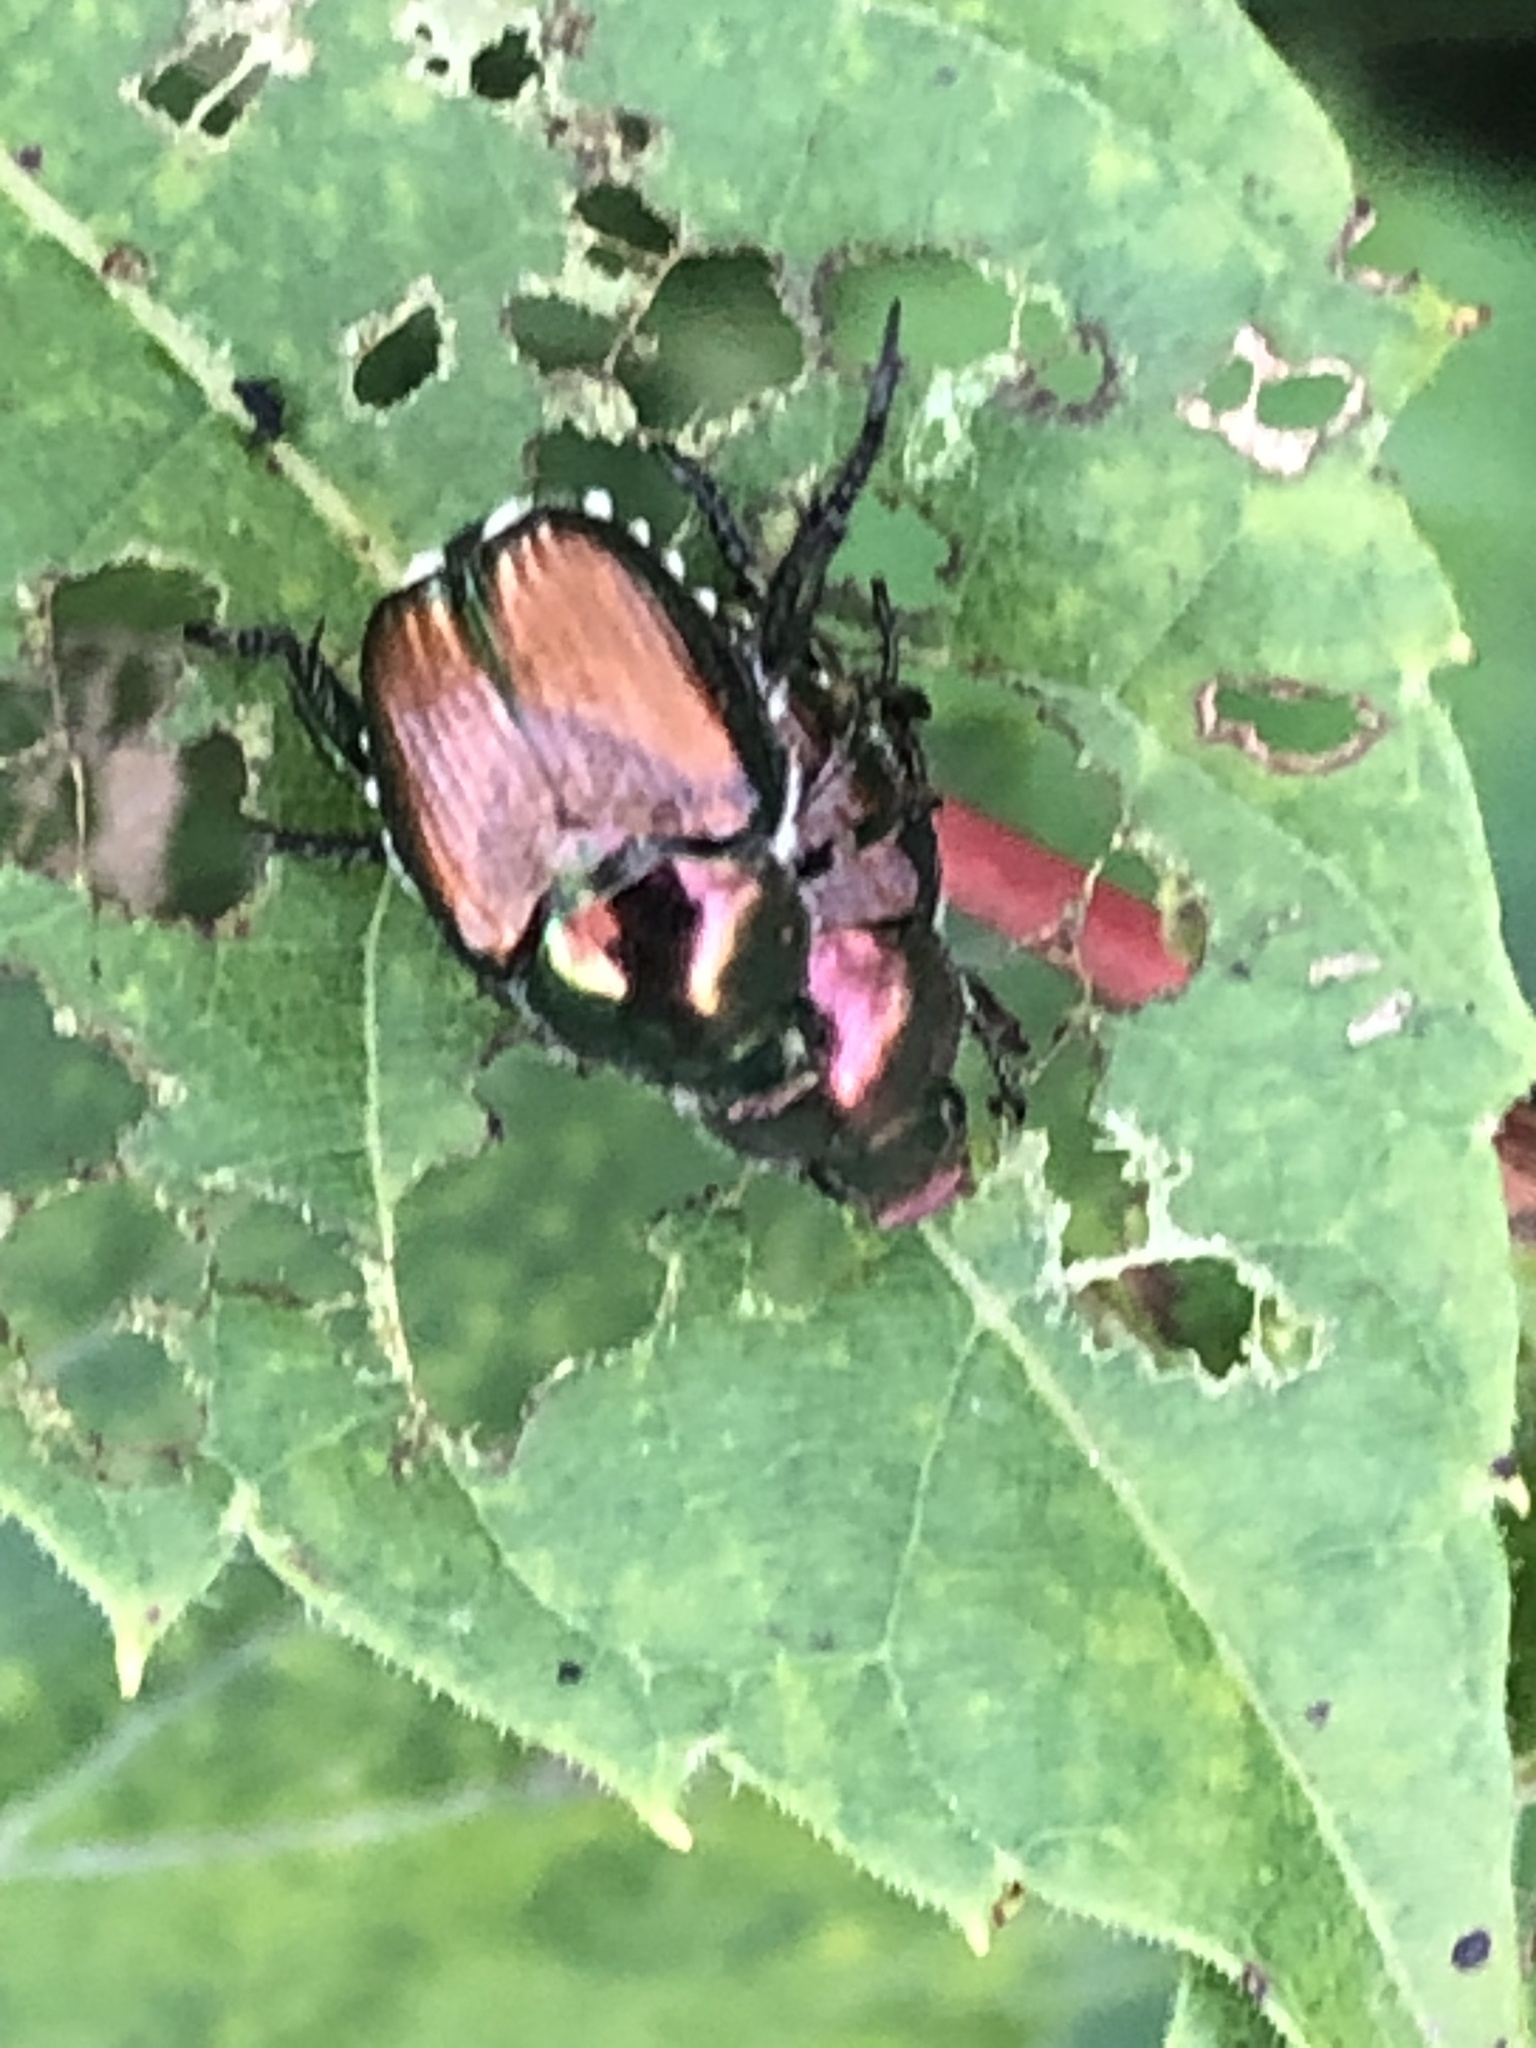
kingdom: Animalia
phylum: Arthropoda
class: Insecta
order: Coleoptera
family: Scarabaeidae
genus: Popillia
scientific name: Popillia japonica
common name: Japanese beetle
